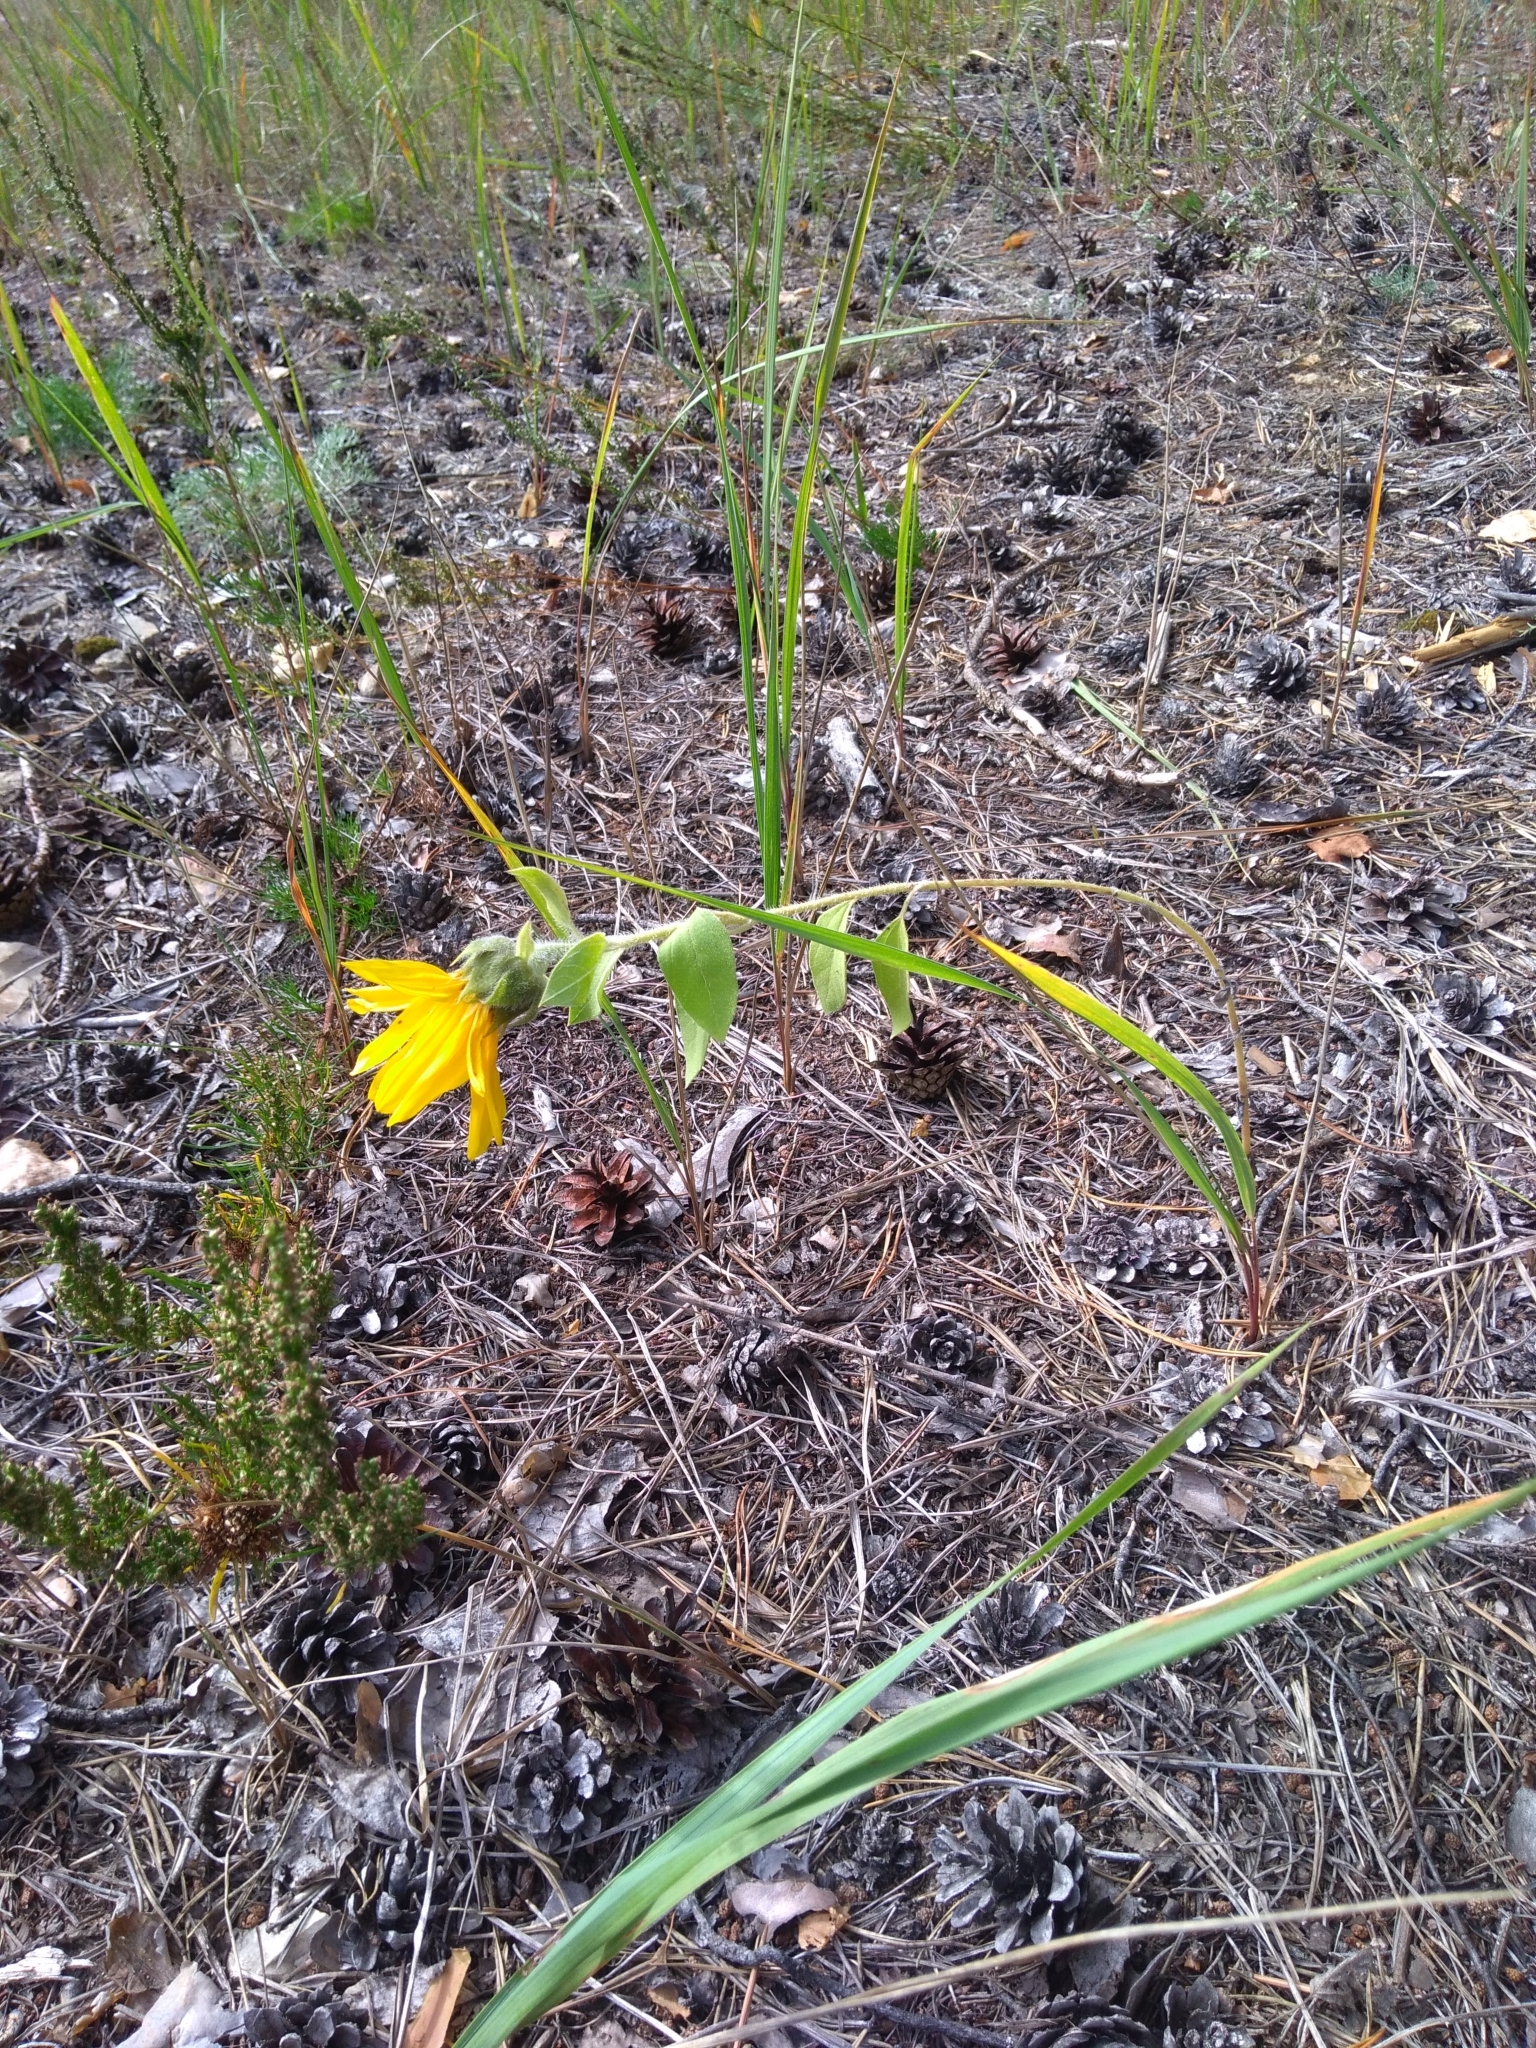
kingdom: Plantae
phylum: Tracheophyta
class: Magnoliopsida
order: Asterales
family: Asteraceae
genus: Helianthus
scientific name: Helianthus annuus
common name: Sunflower
